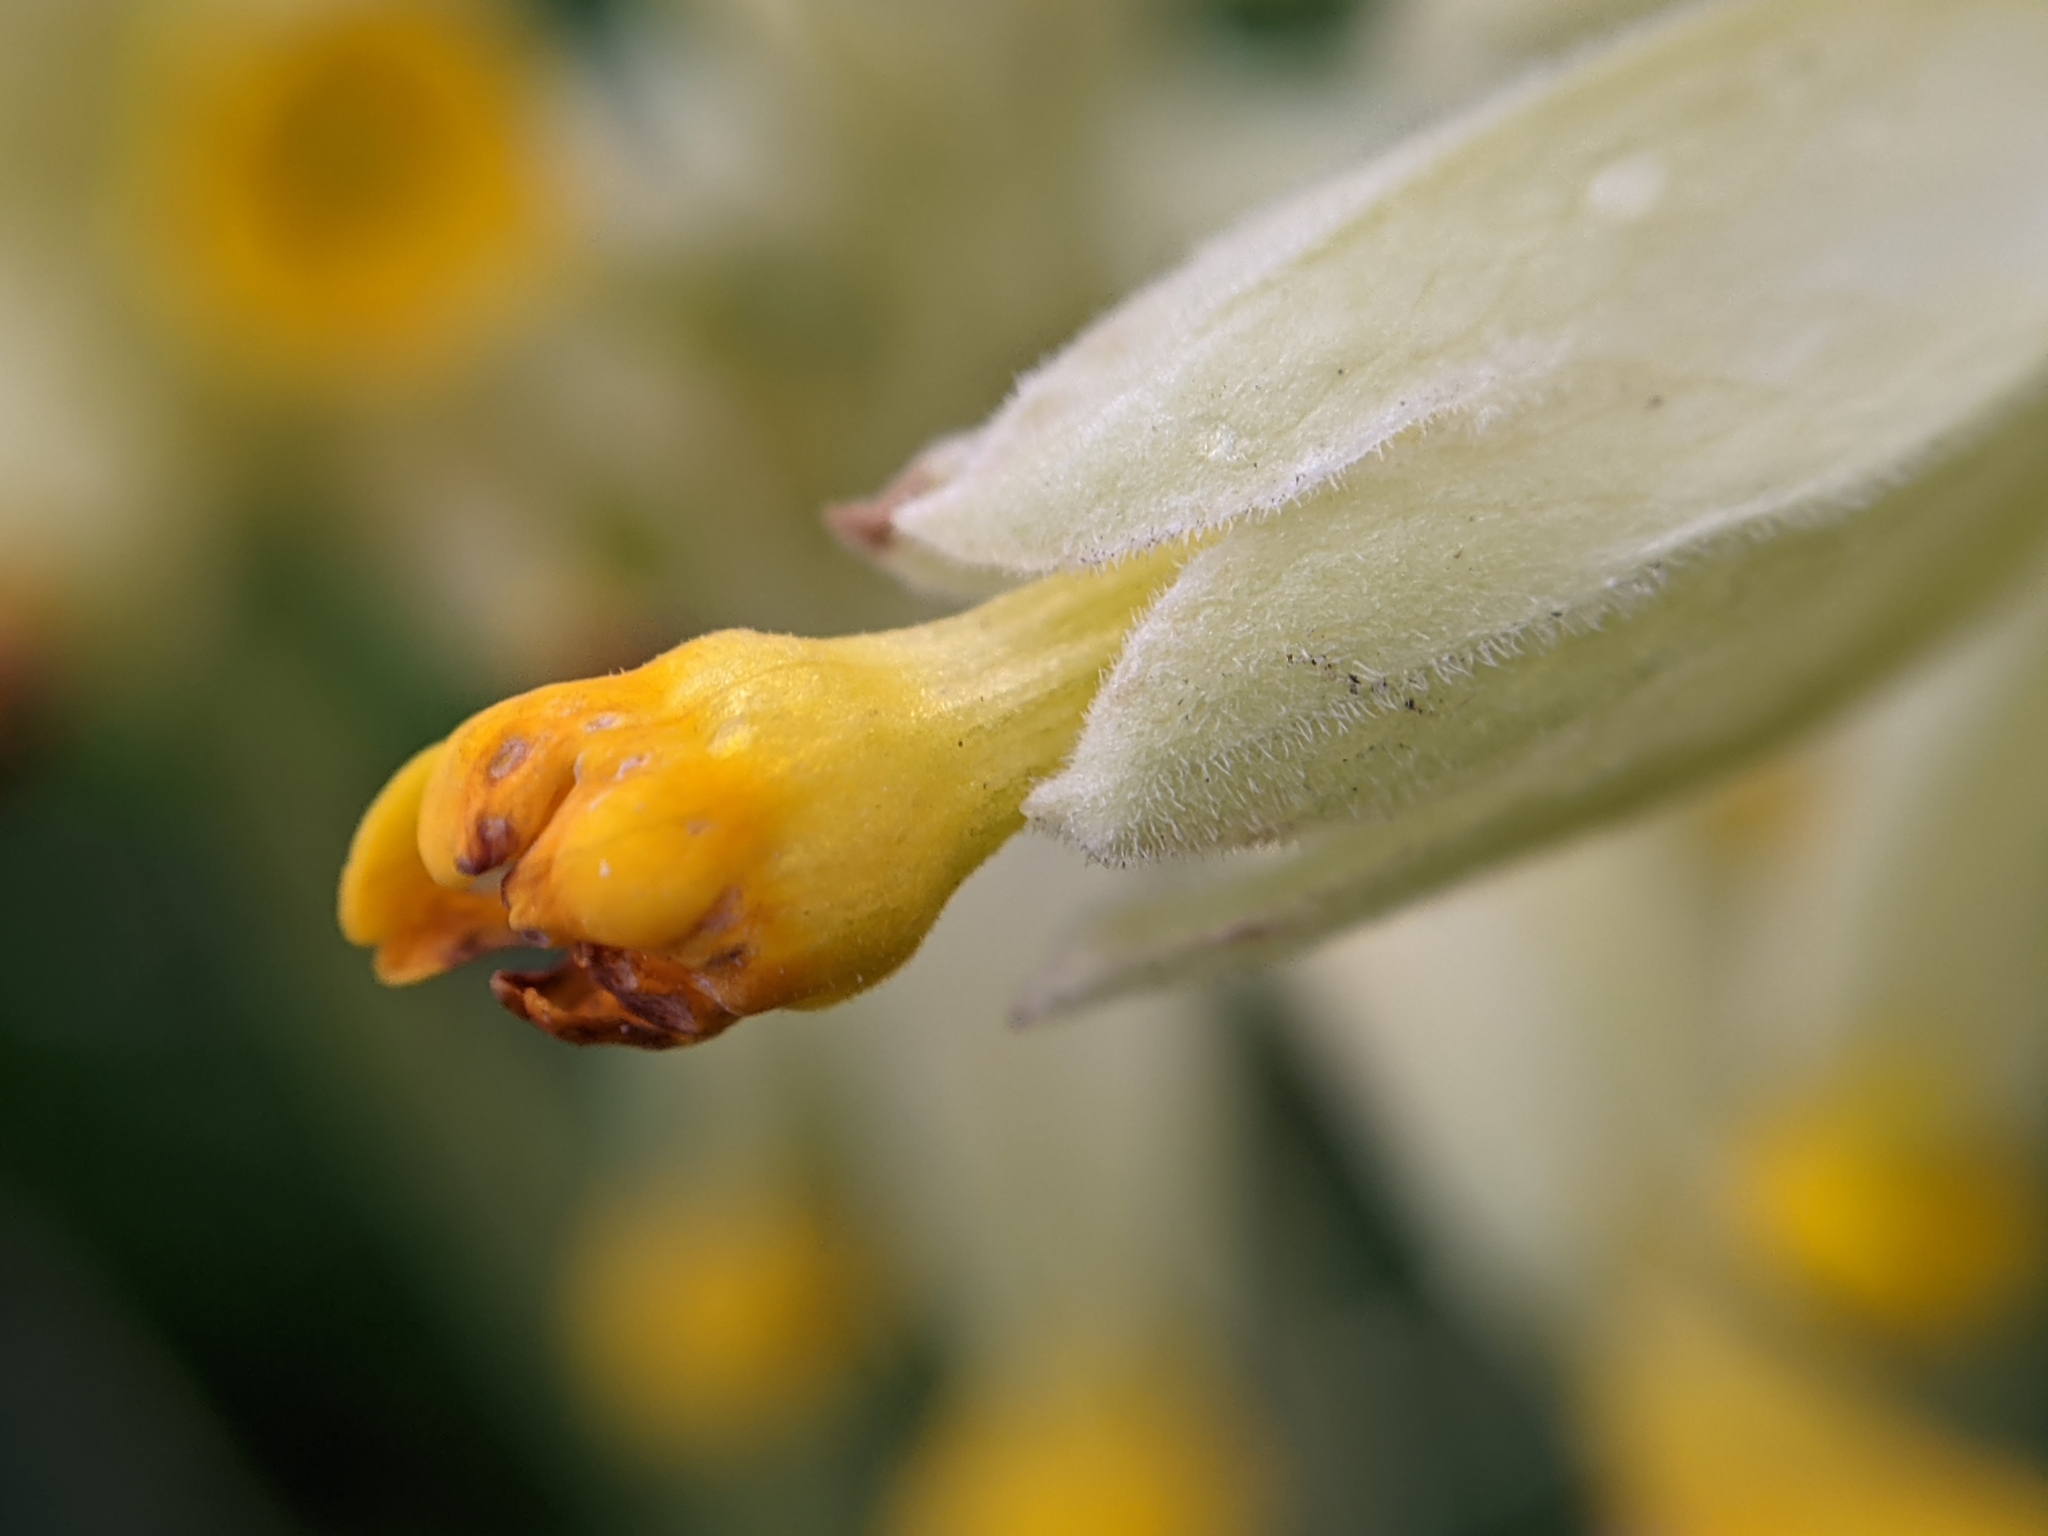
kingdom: Plantae
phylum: Tracheophyta
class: Magnoliopsida
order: Ericales
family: Primulaceae
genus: Primula
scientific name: Primula veris
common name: Cowslip
